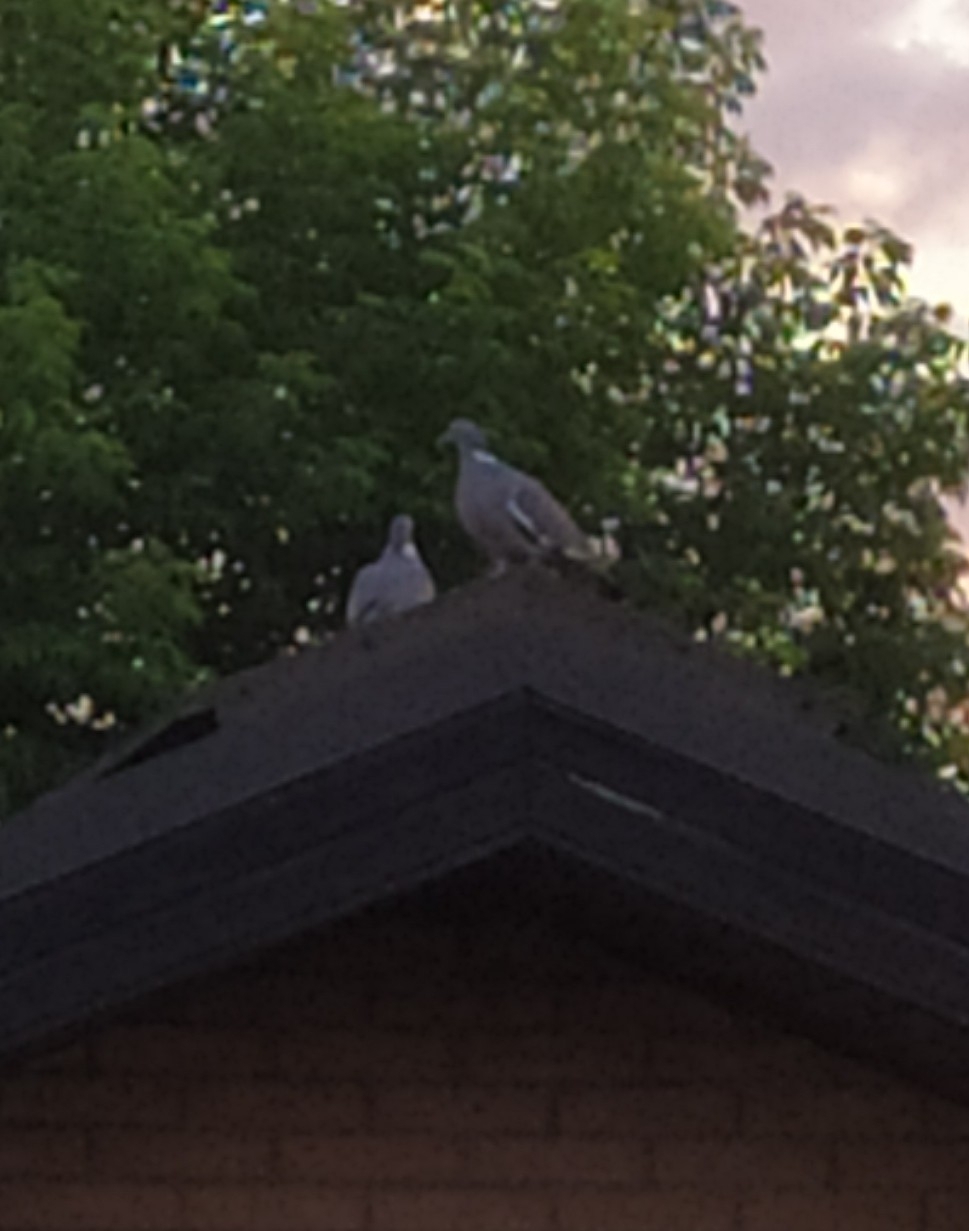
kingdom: Animalia
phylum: Chordata
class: Aves
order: Columbiformes
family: Columbidae
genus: Columba
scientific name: Columba palumbus
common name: Common wood pigeon
